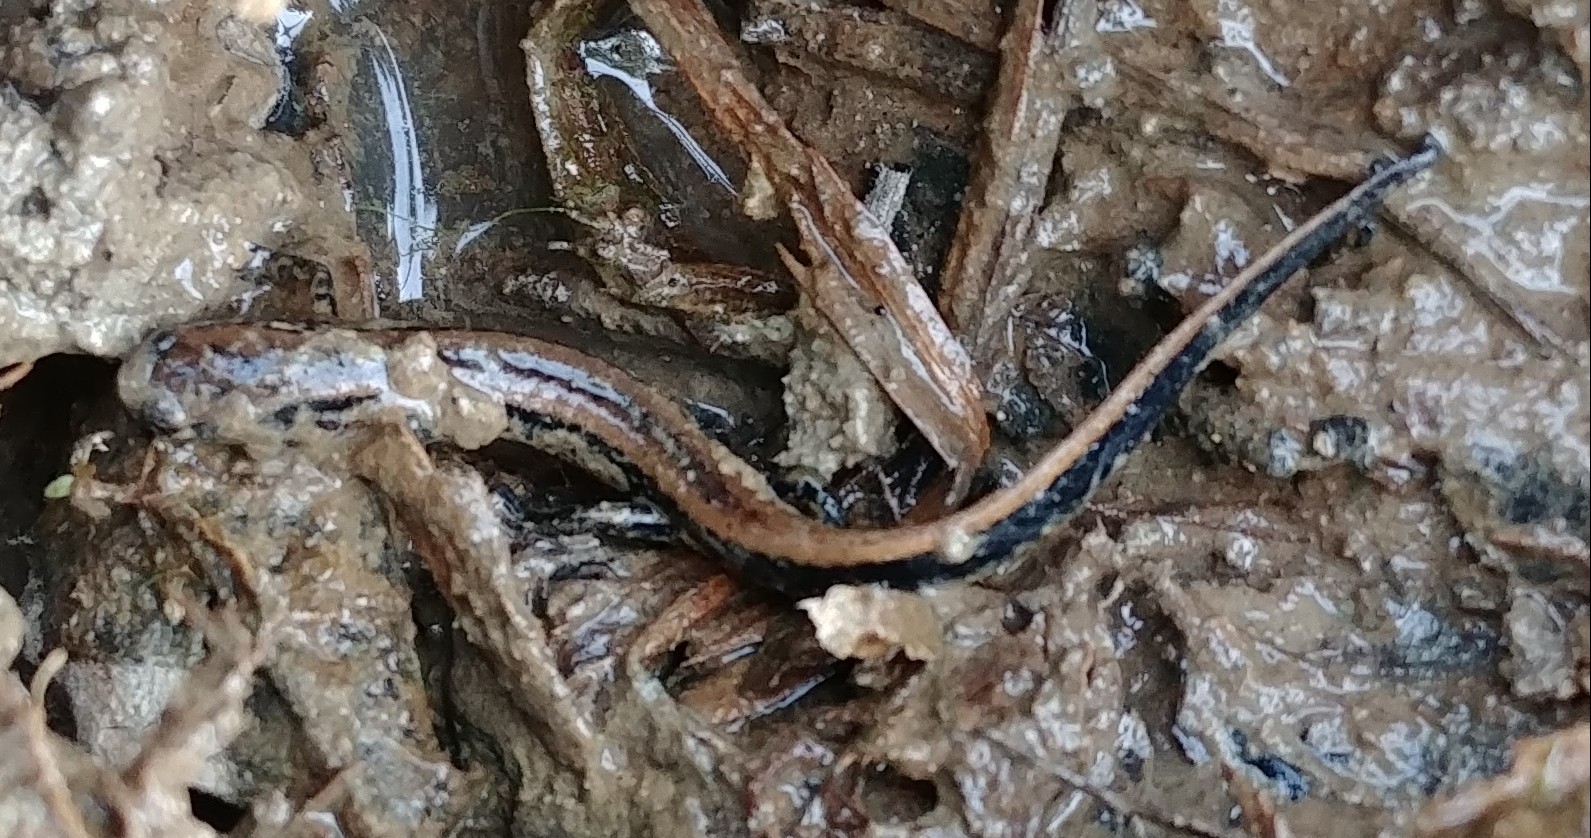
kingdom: Animalia
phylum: Chordata
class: Amphibia
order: Caudata
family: Plethodontidae
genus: Eurycea
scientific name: Eurycea guttolineata
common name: Three-lined salamander
